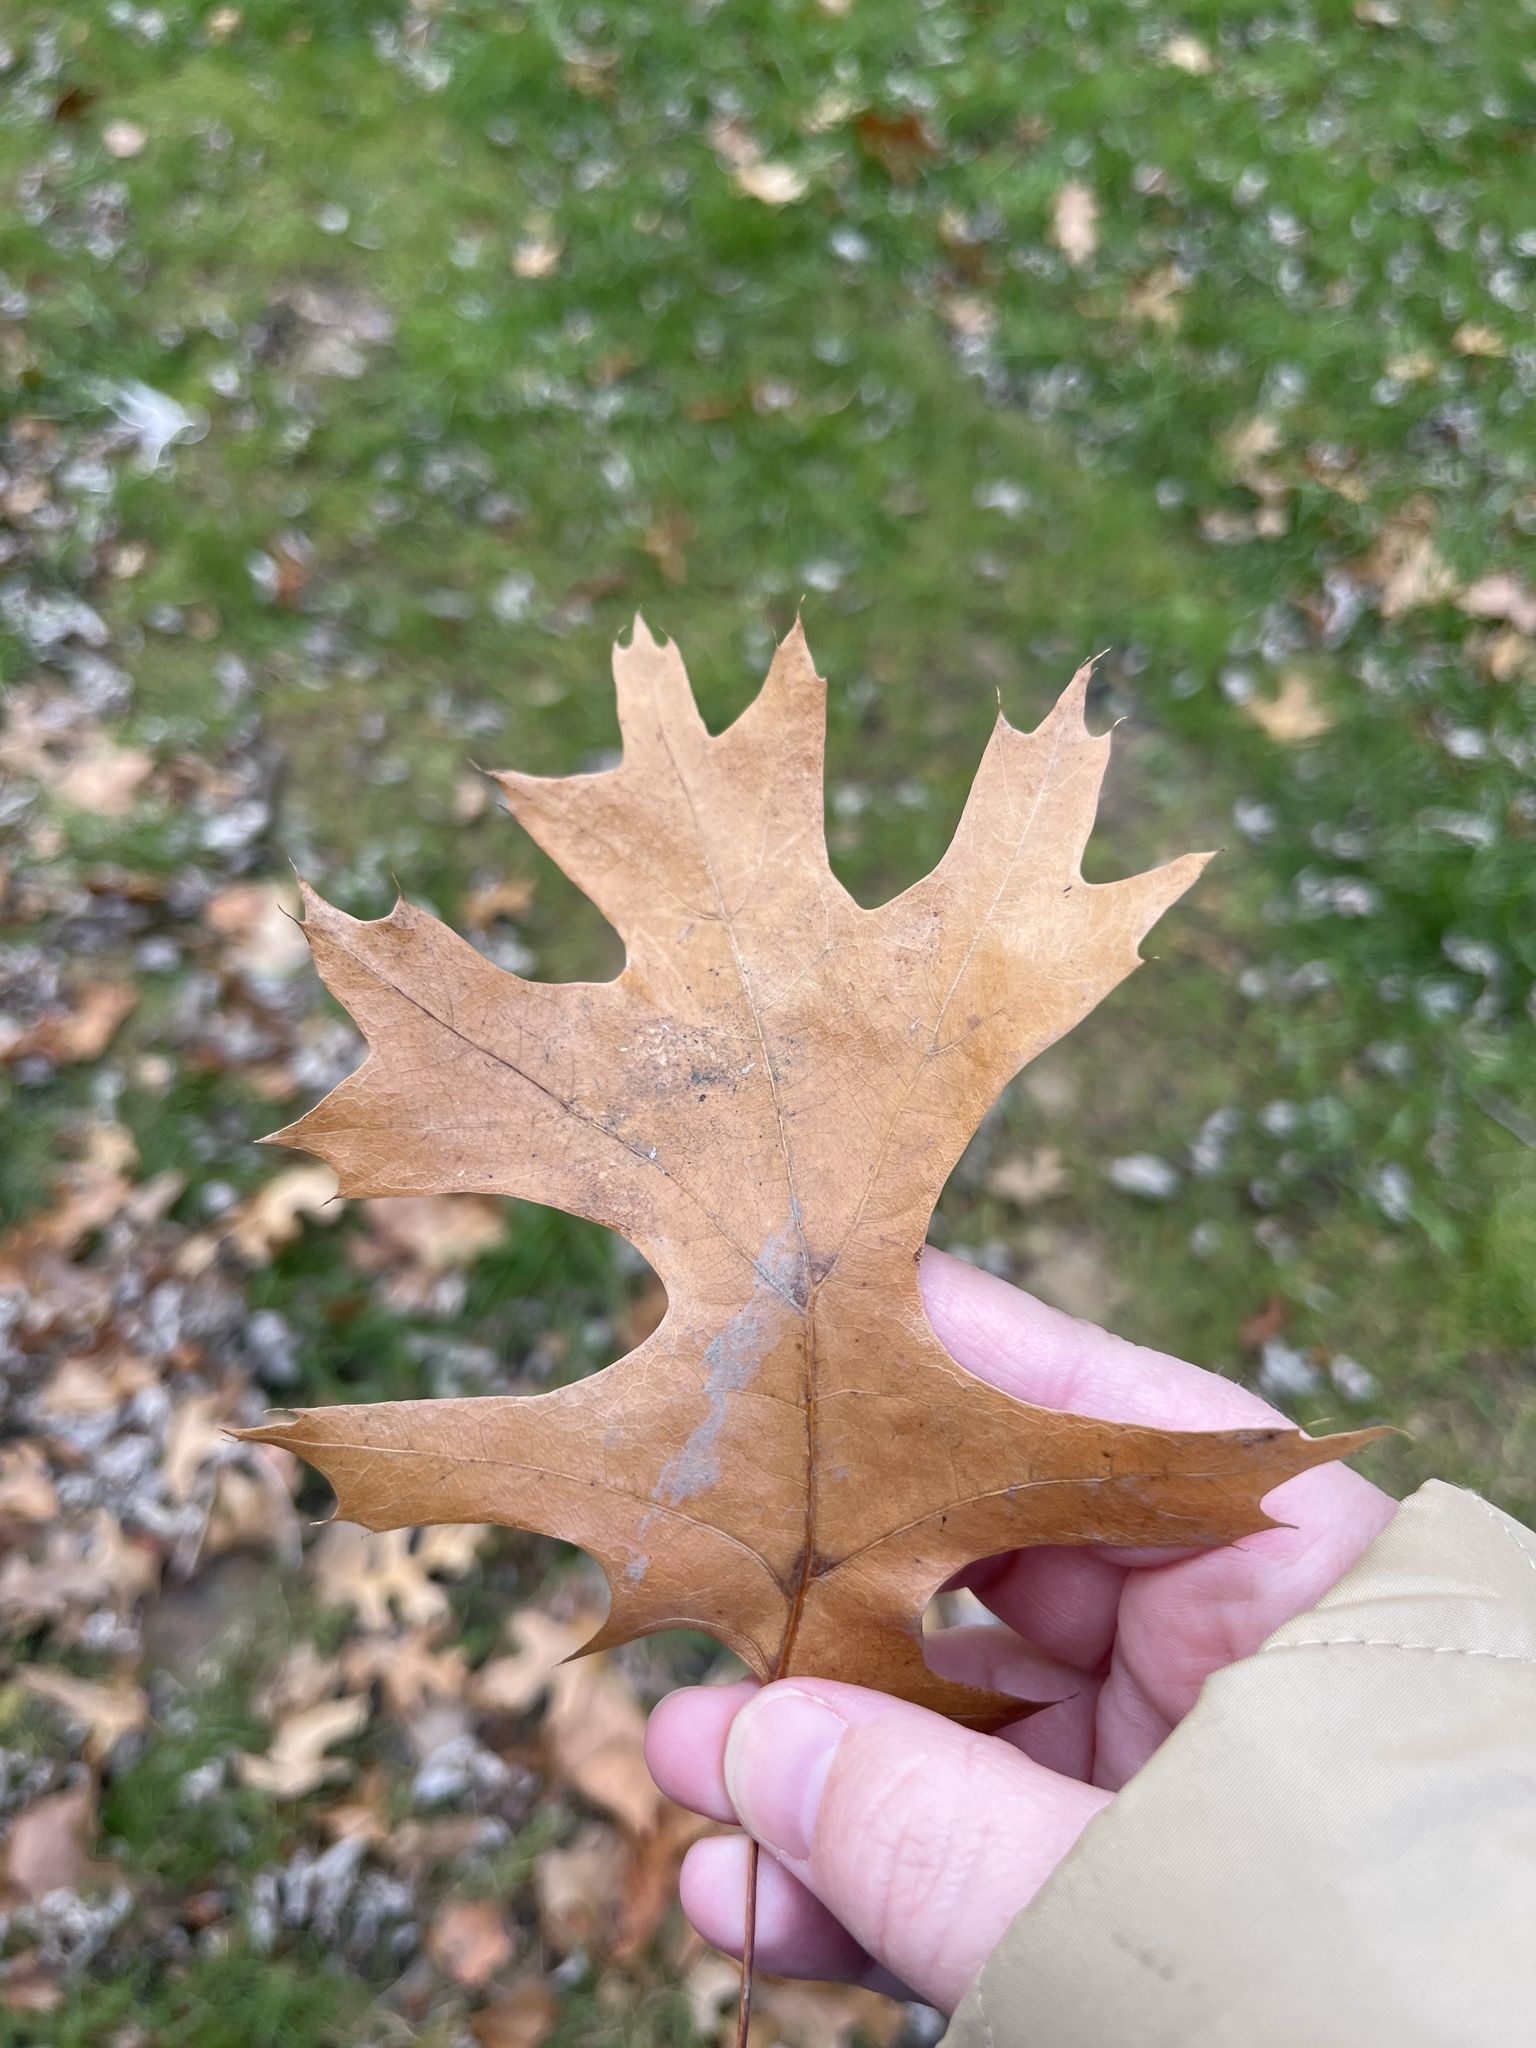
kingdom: Plantae
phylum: Tracheophyta
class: Magnoliopsida
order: Fagales
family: Fagaceae
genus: Quercus
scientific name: Quercus coccinea
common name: Scarlet oak
